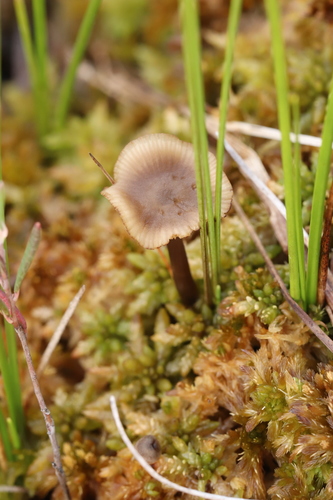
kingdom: Fungi
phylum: Basidiomycota
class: Agaricomycetes
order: Agaricales
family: Lyophyllaceae
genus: Sphagnurus
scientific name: Sphagnurus paluster
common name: Sphagnum greyling
